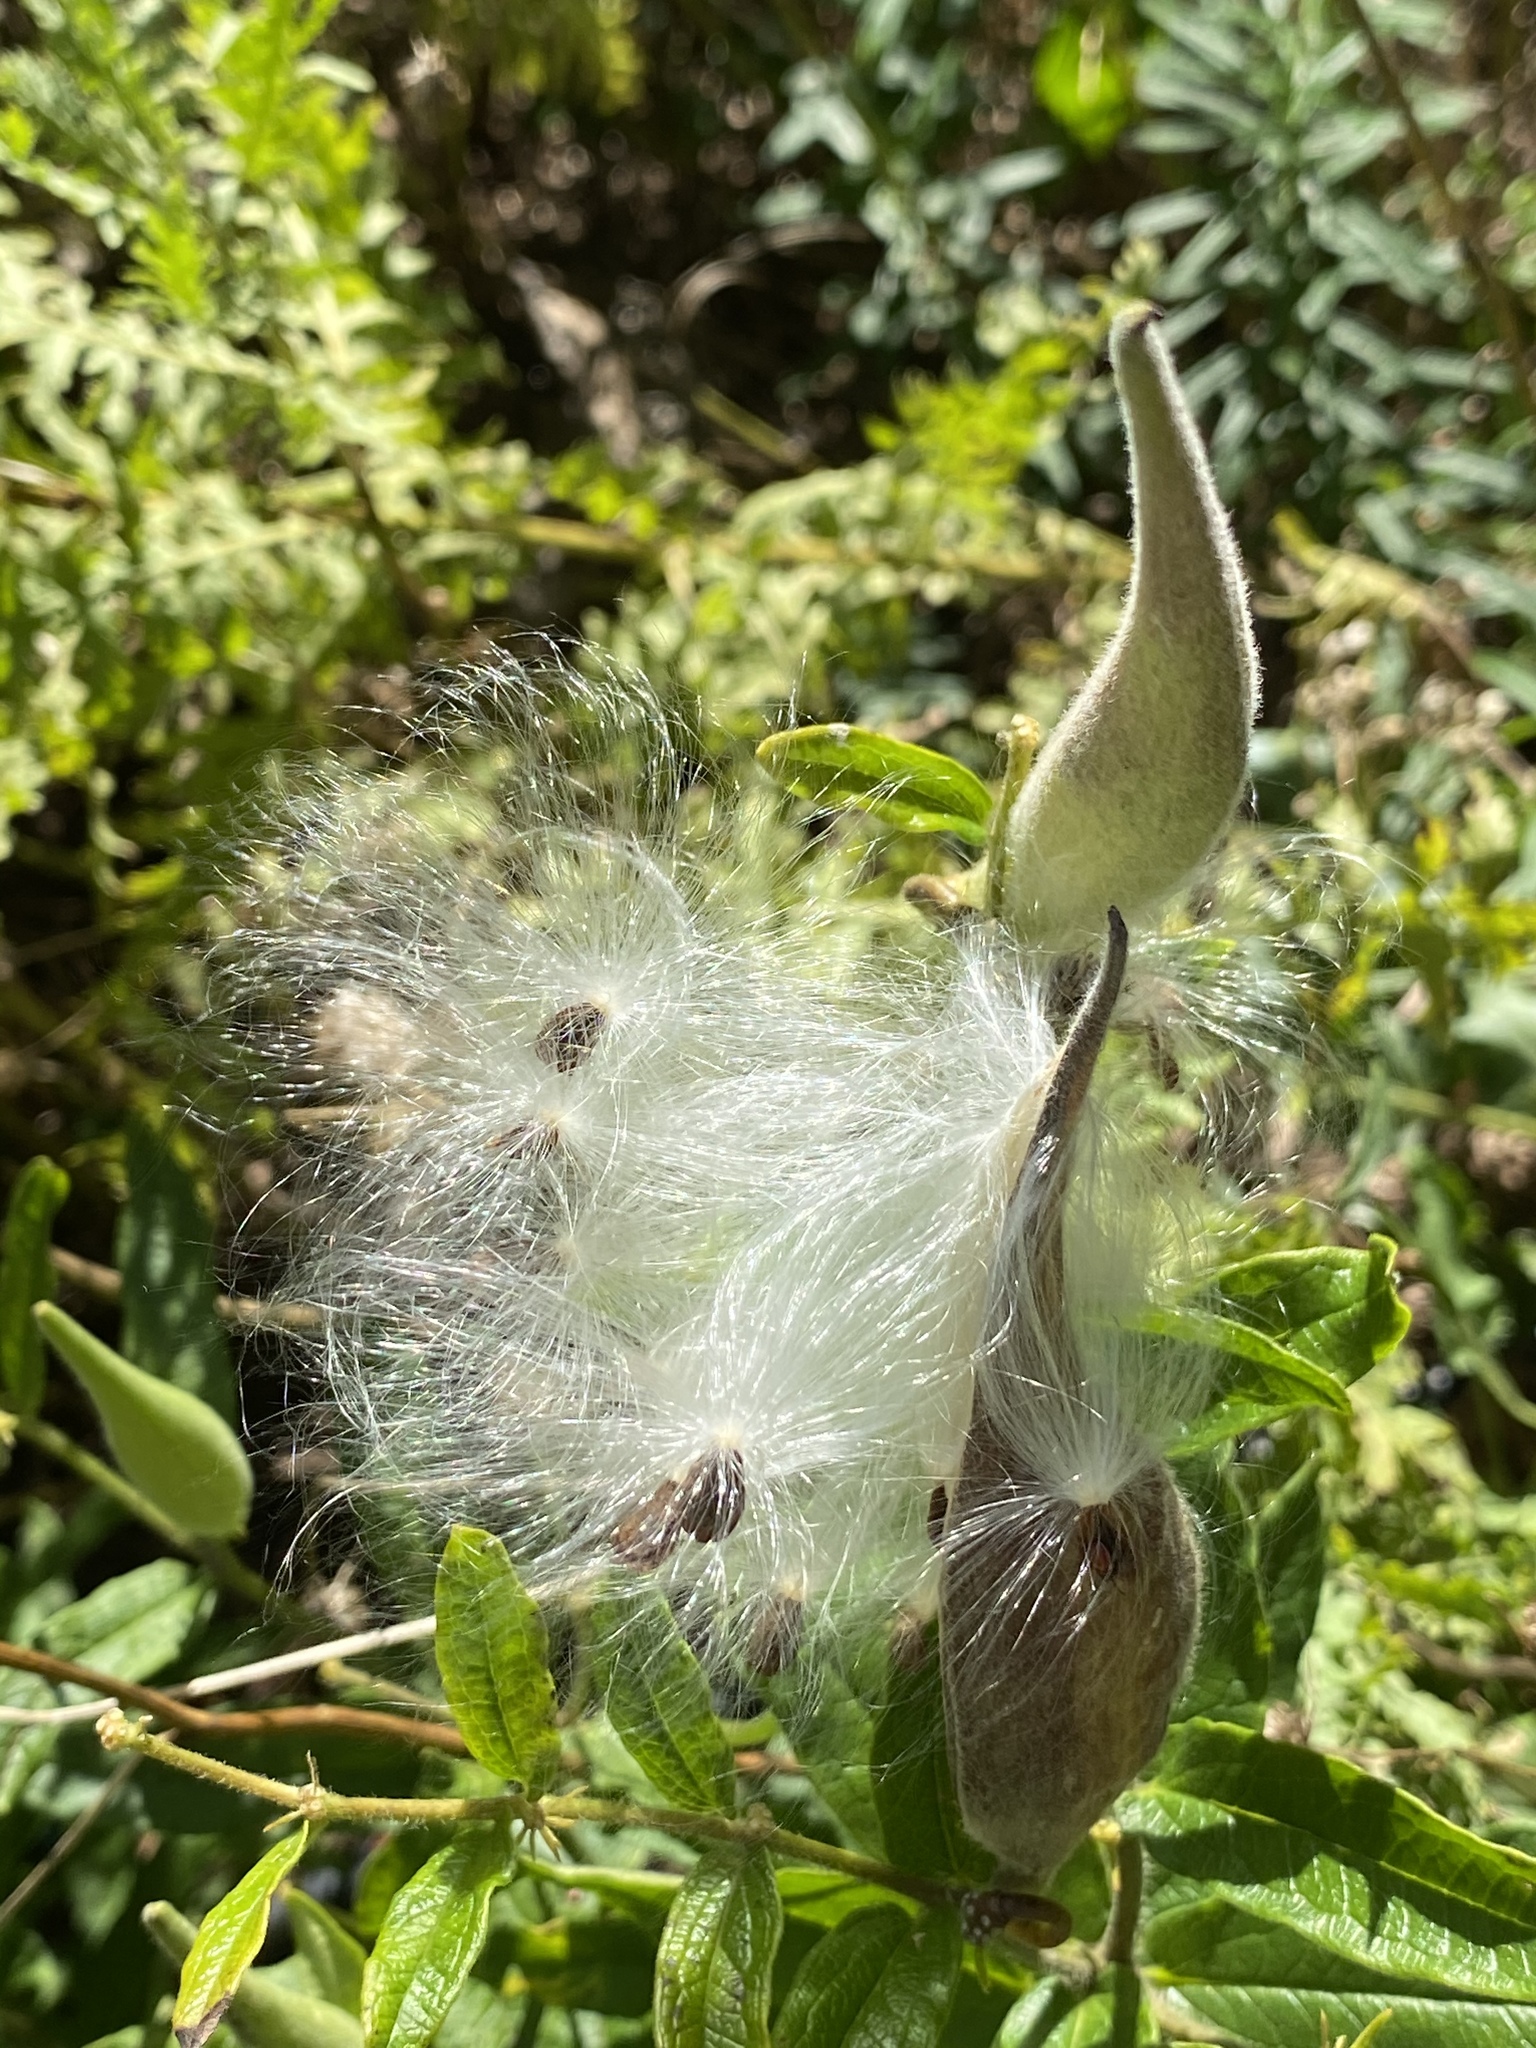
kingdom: Plantae
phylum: Tracheophyta
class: Magnoliopsida
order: Gentianales
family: Apocynaceae
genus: Asclepias
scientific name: Asclepias tuberosa
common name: Butterfly milkweed
